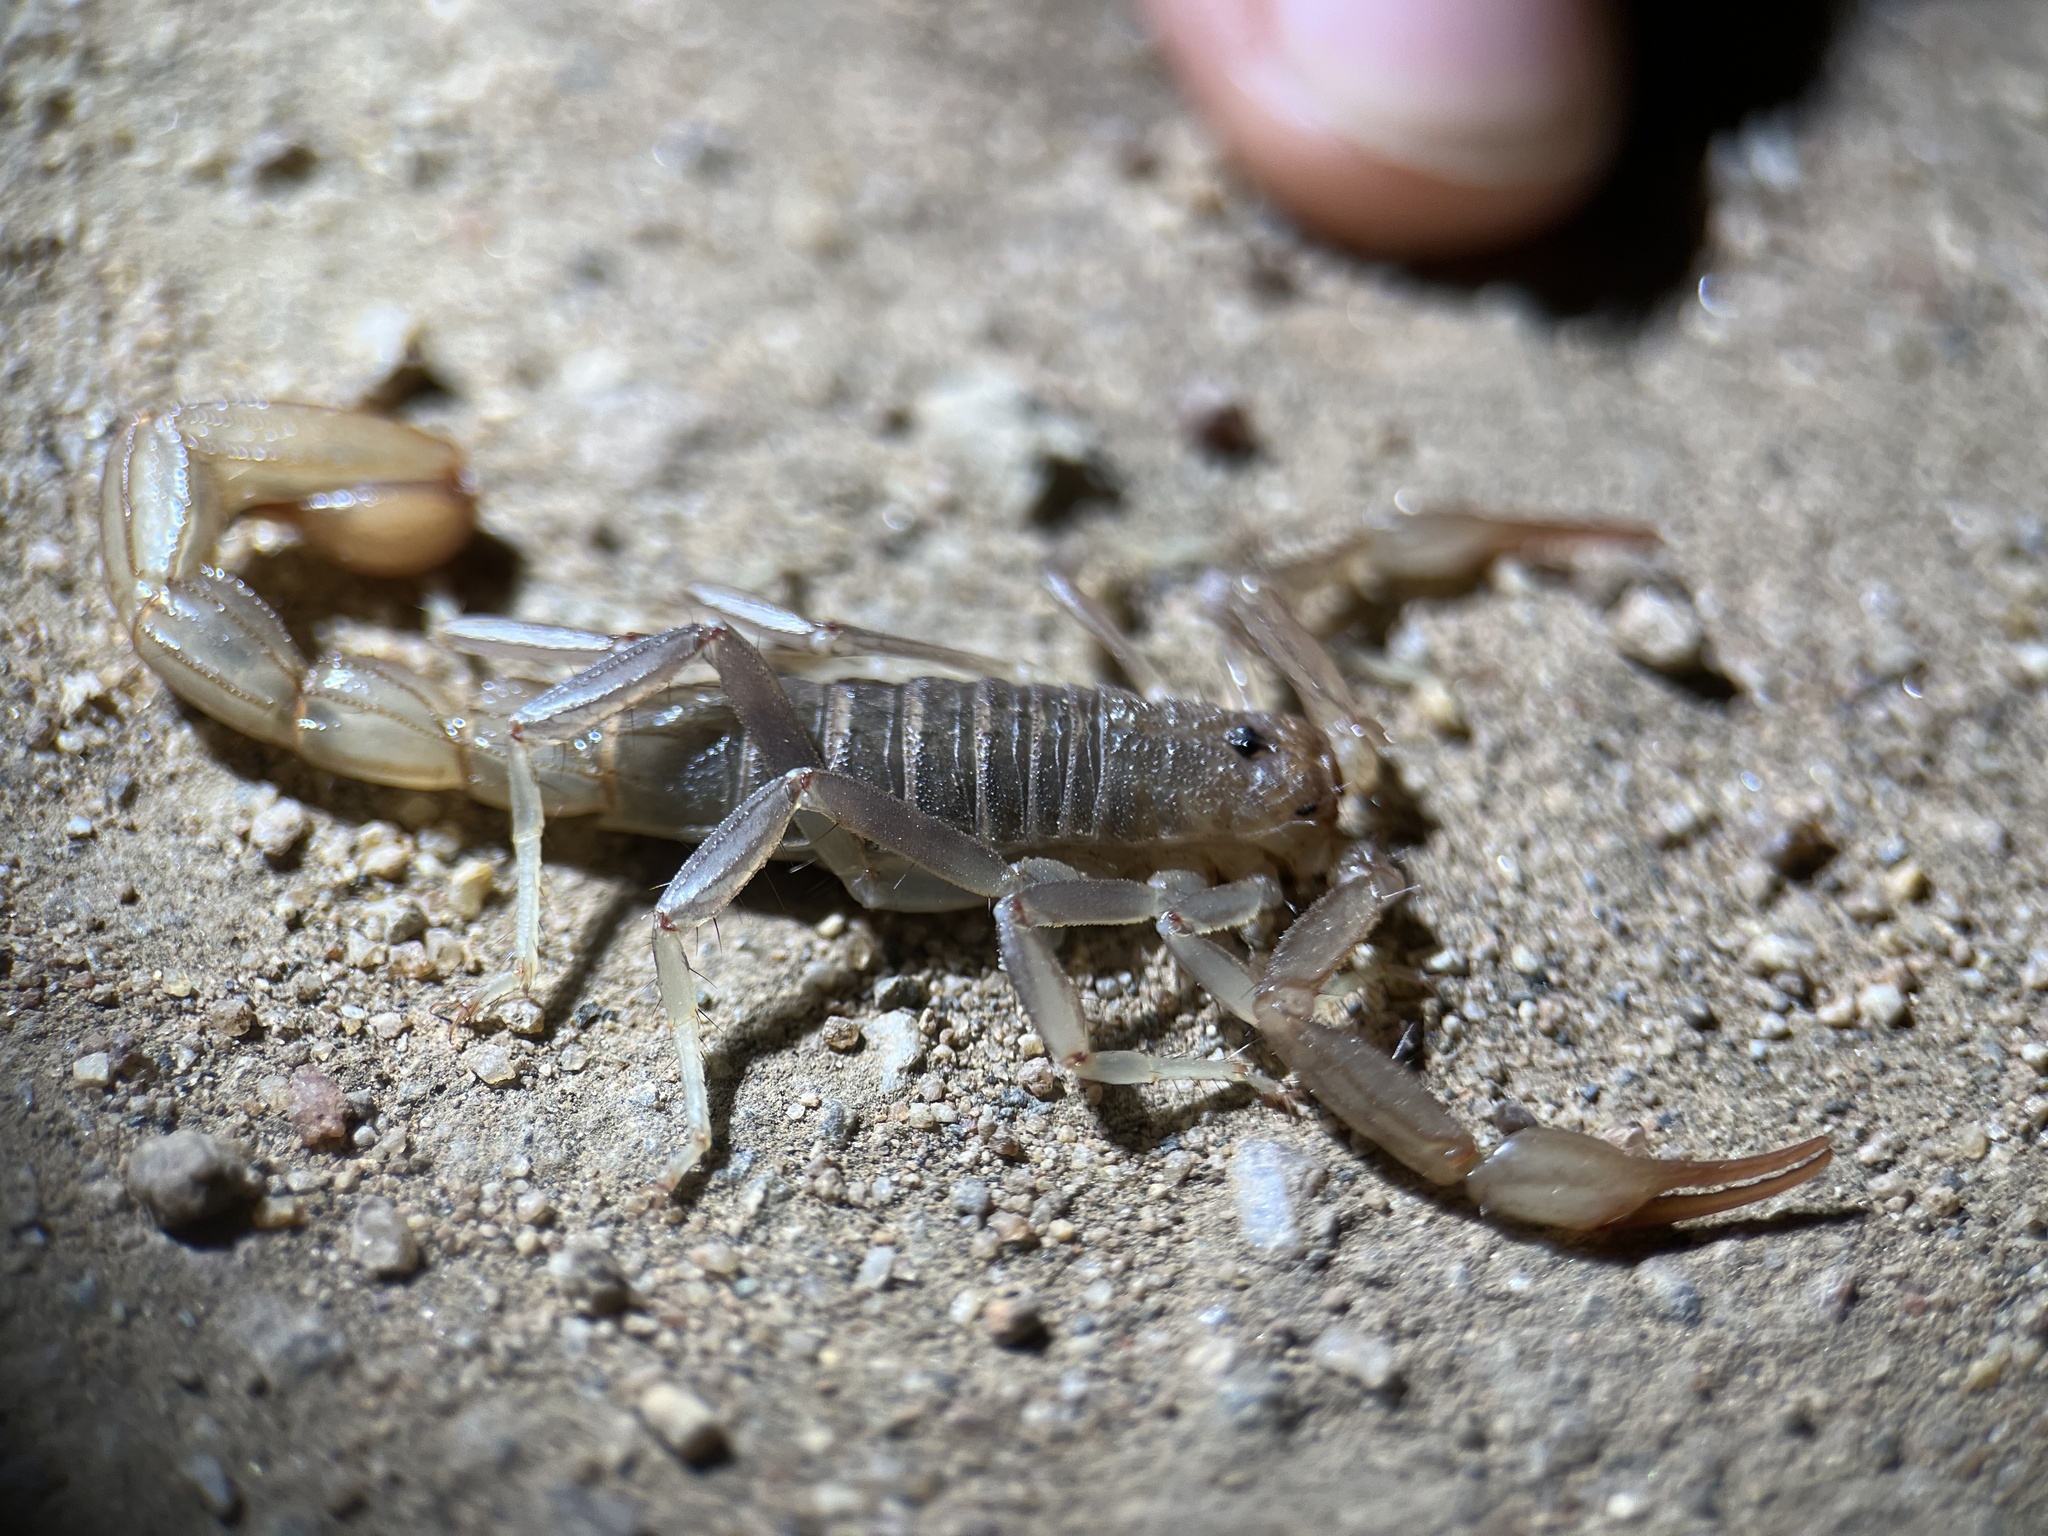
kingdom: Animalia
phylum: Arthropoda
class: Arachnida
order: Scorpiones
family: Vaejovidae
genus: Paravaejovis
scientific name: Paravaejovis puritanus
